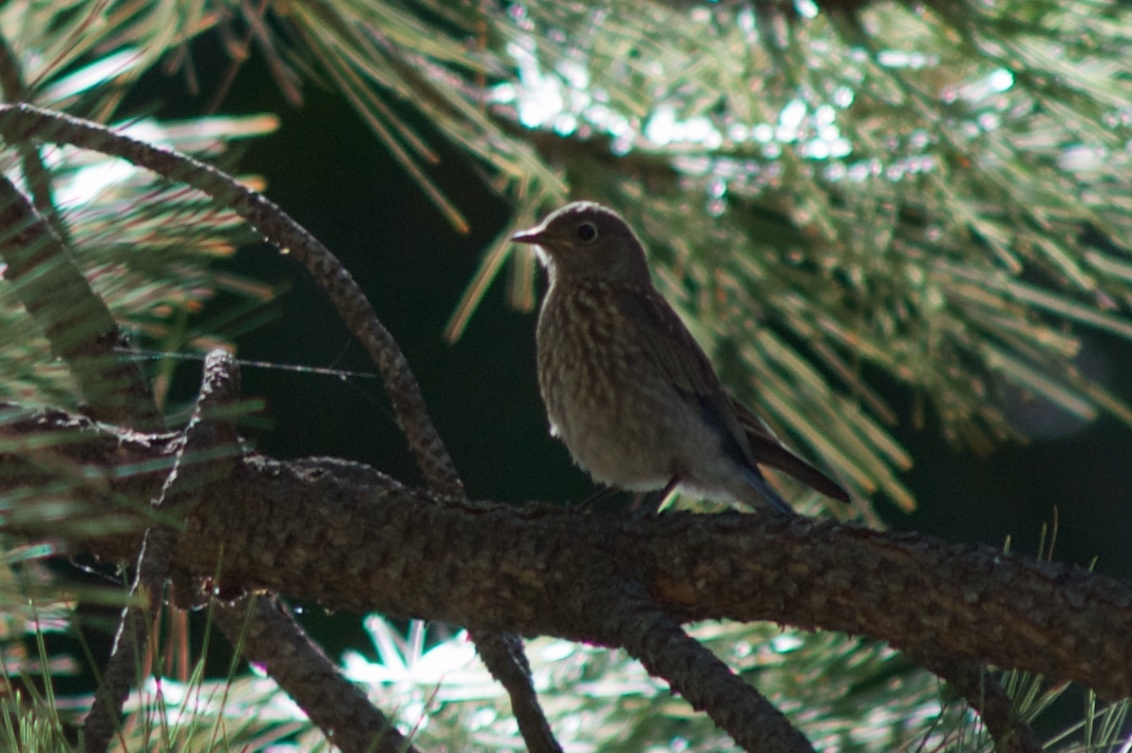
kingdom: Animalia
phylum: Chordata
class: Aves
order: Passeriformes
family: Turdidae
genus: Sialia
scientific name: Sialia mexicana
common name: Western bluebird
